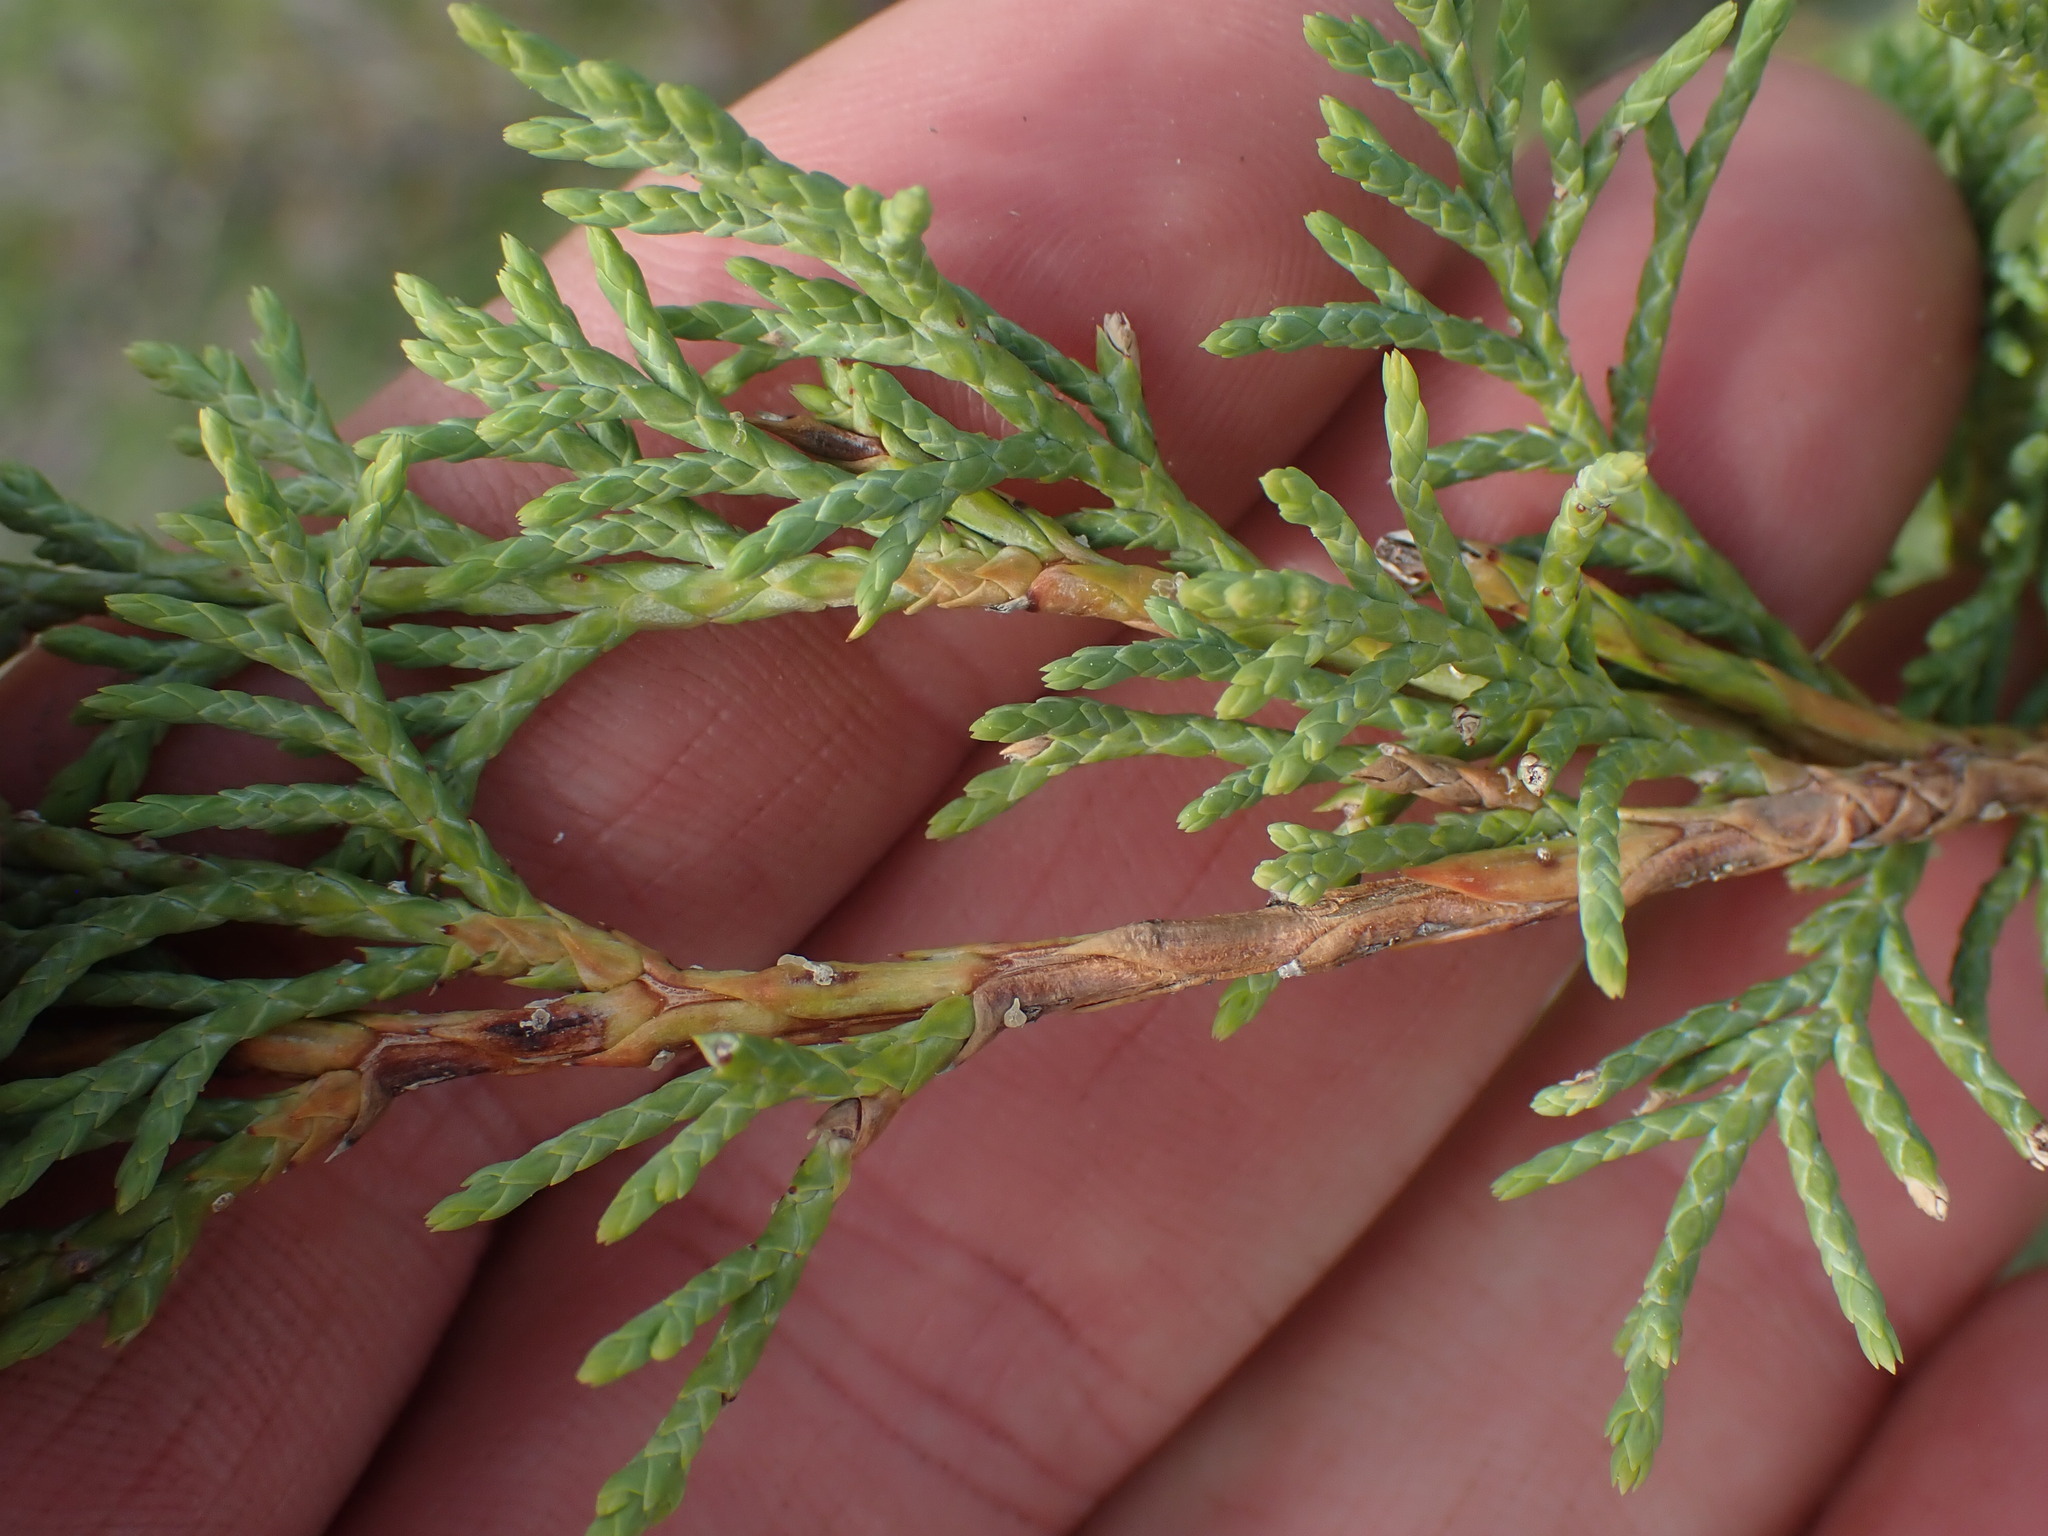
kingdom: Plantae
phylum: Tracheophyta
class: Pinopsida
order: Pinales
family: Cupressaceae
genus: Juniperus
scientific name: Juniperus scopulorum
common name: Rocky mountain juniper
